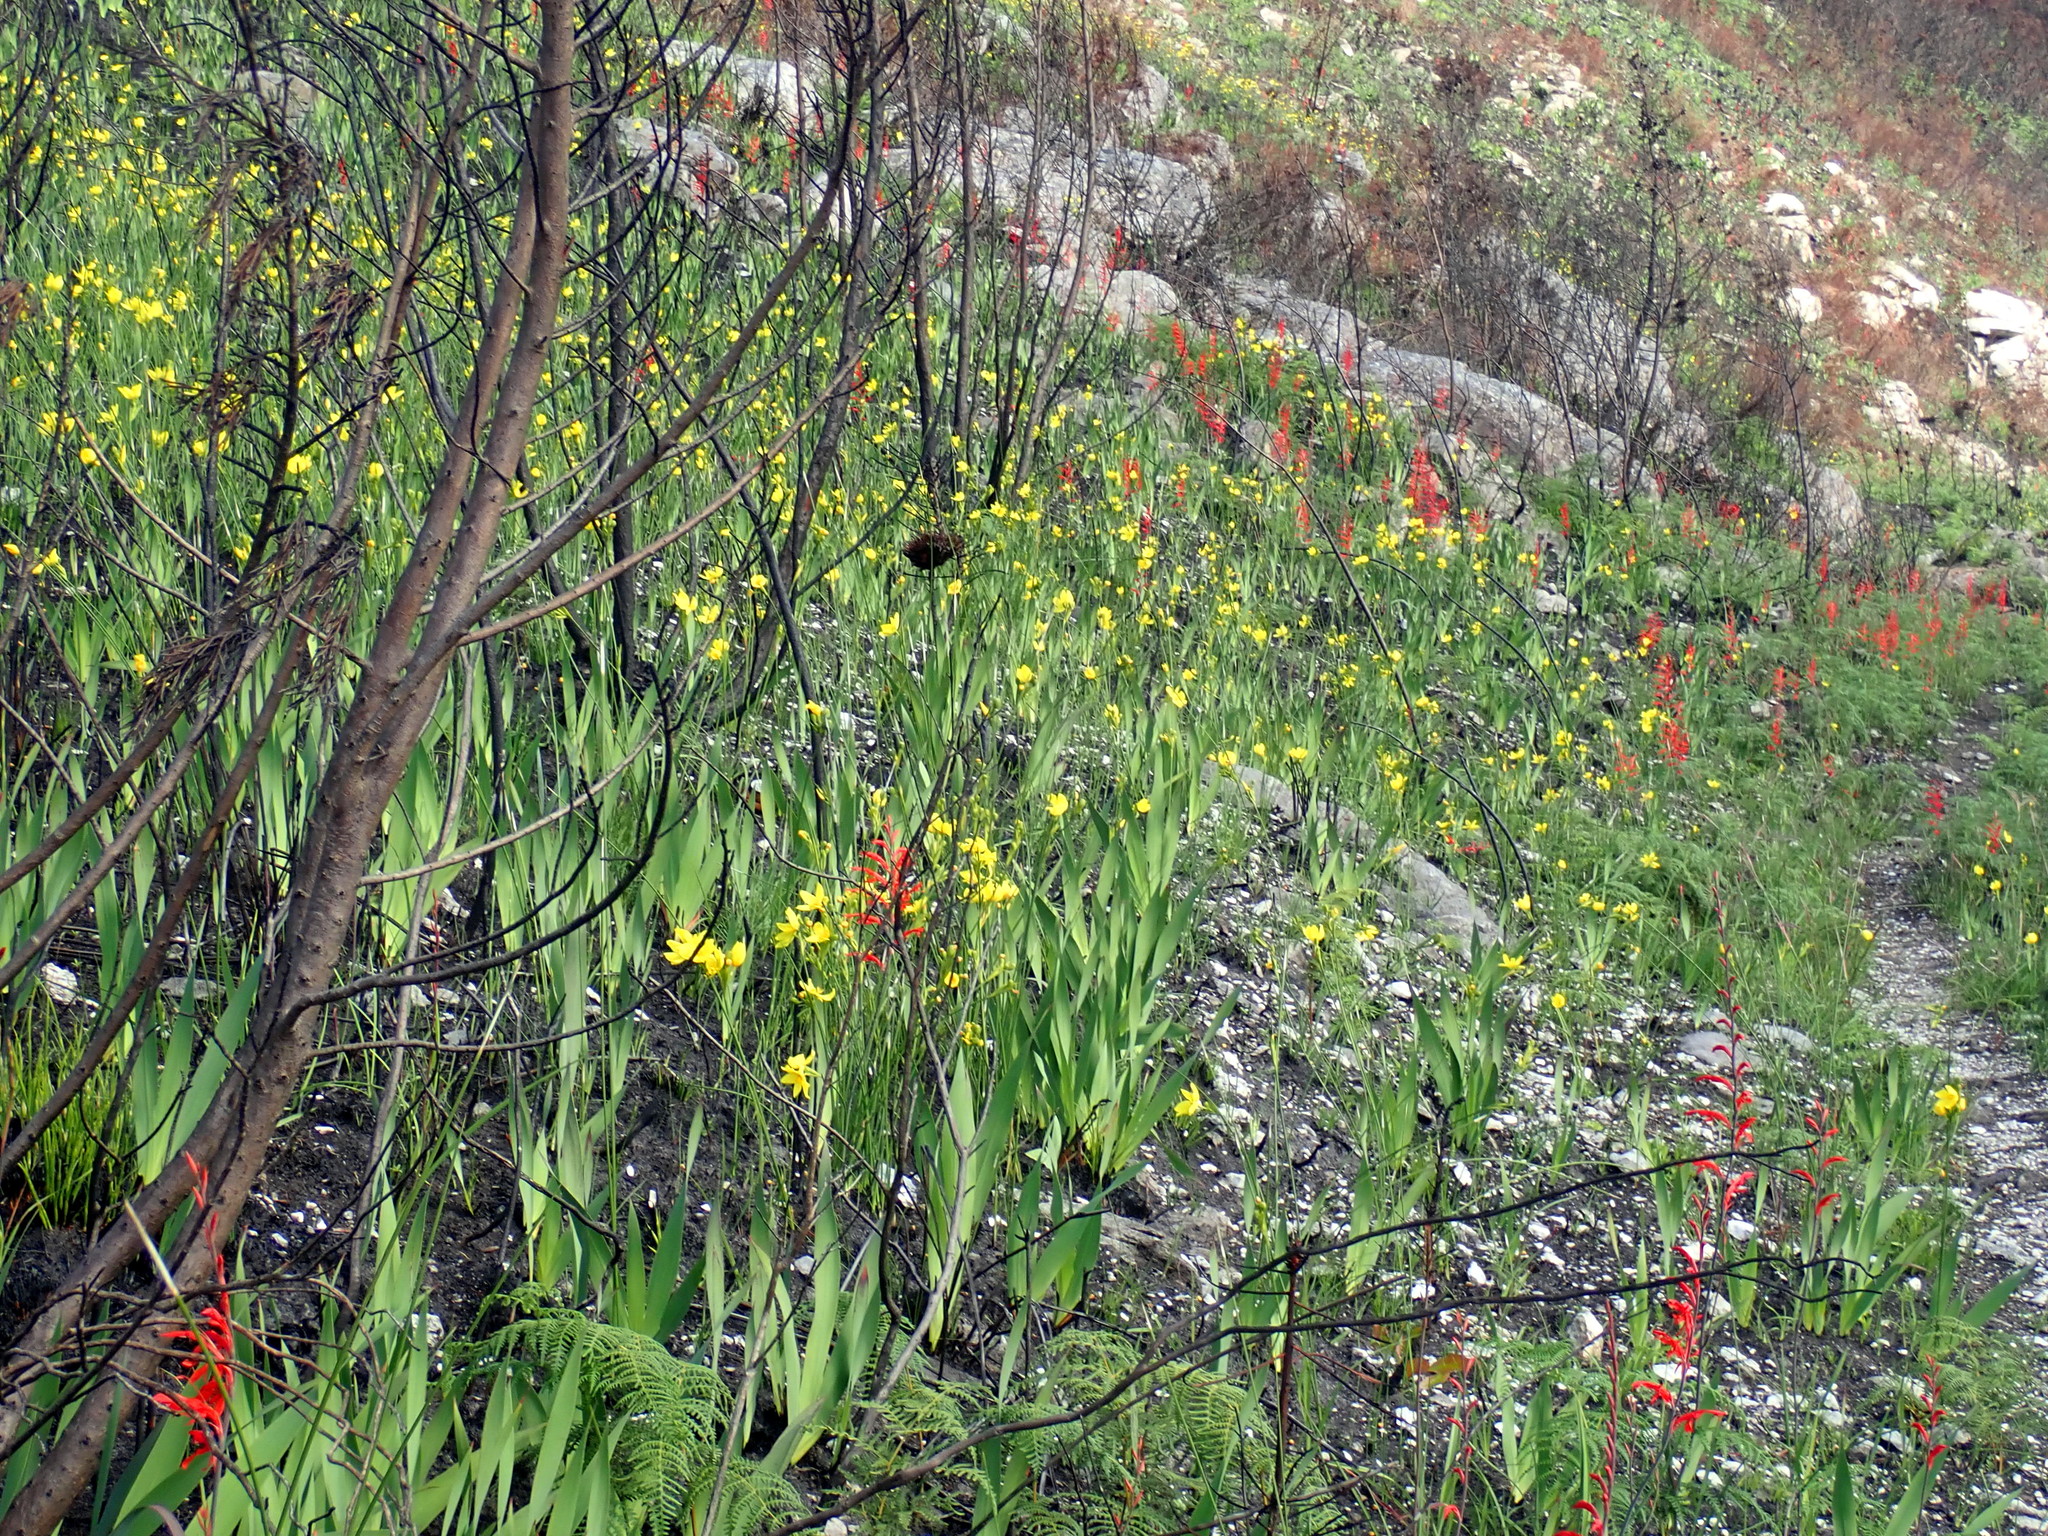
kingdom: Plantae
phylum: Tracheophyta
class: Liliopsida
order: Asparagales
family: Iridaceae
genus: Tritoniopsis
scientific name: Tritoniopsis caffra
